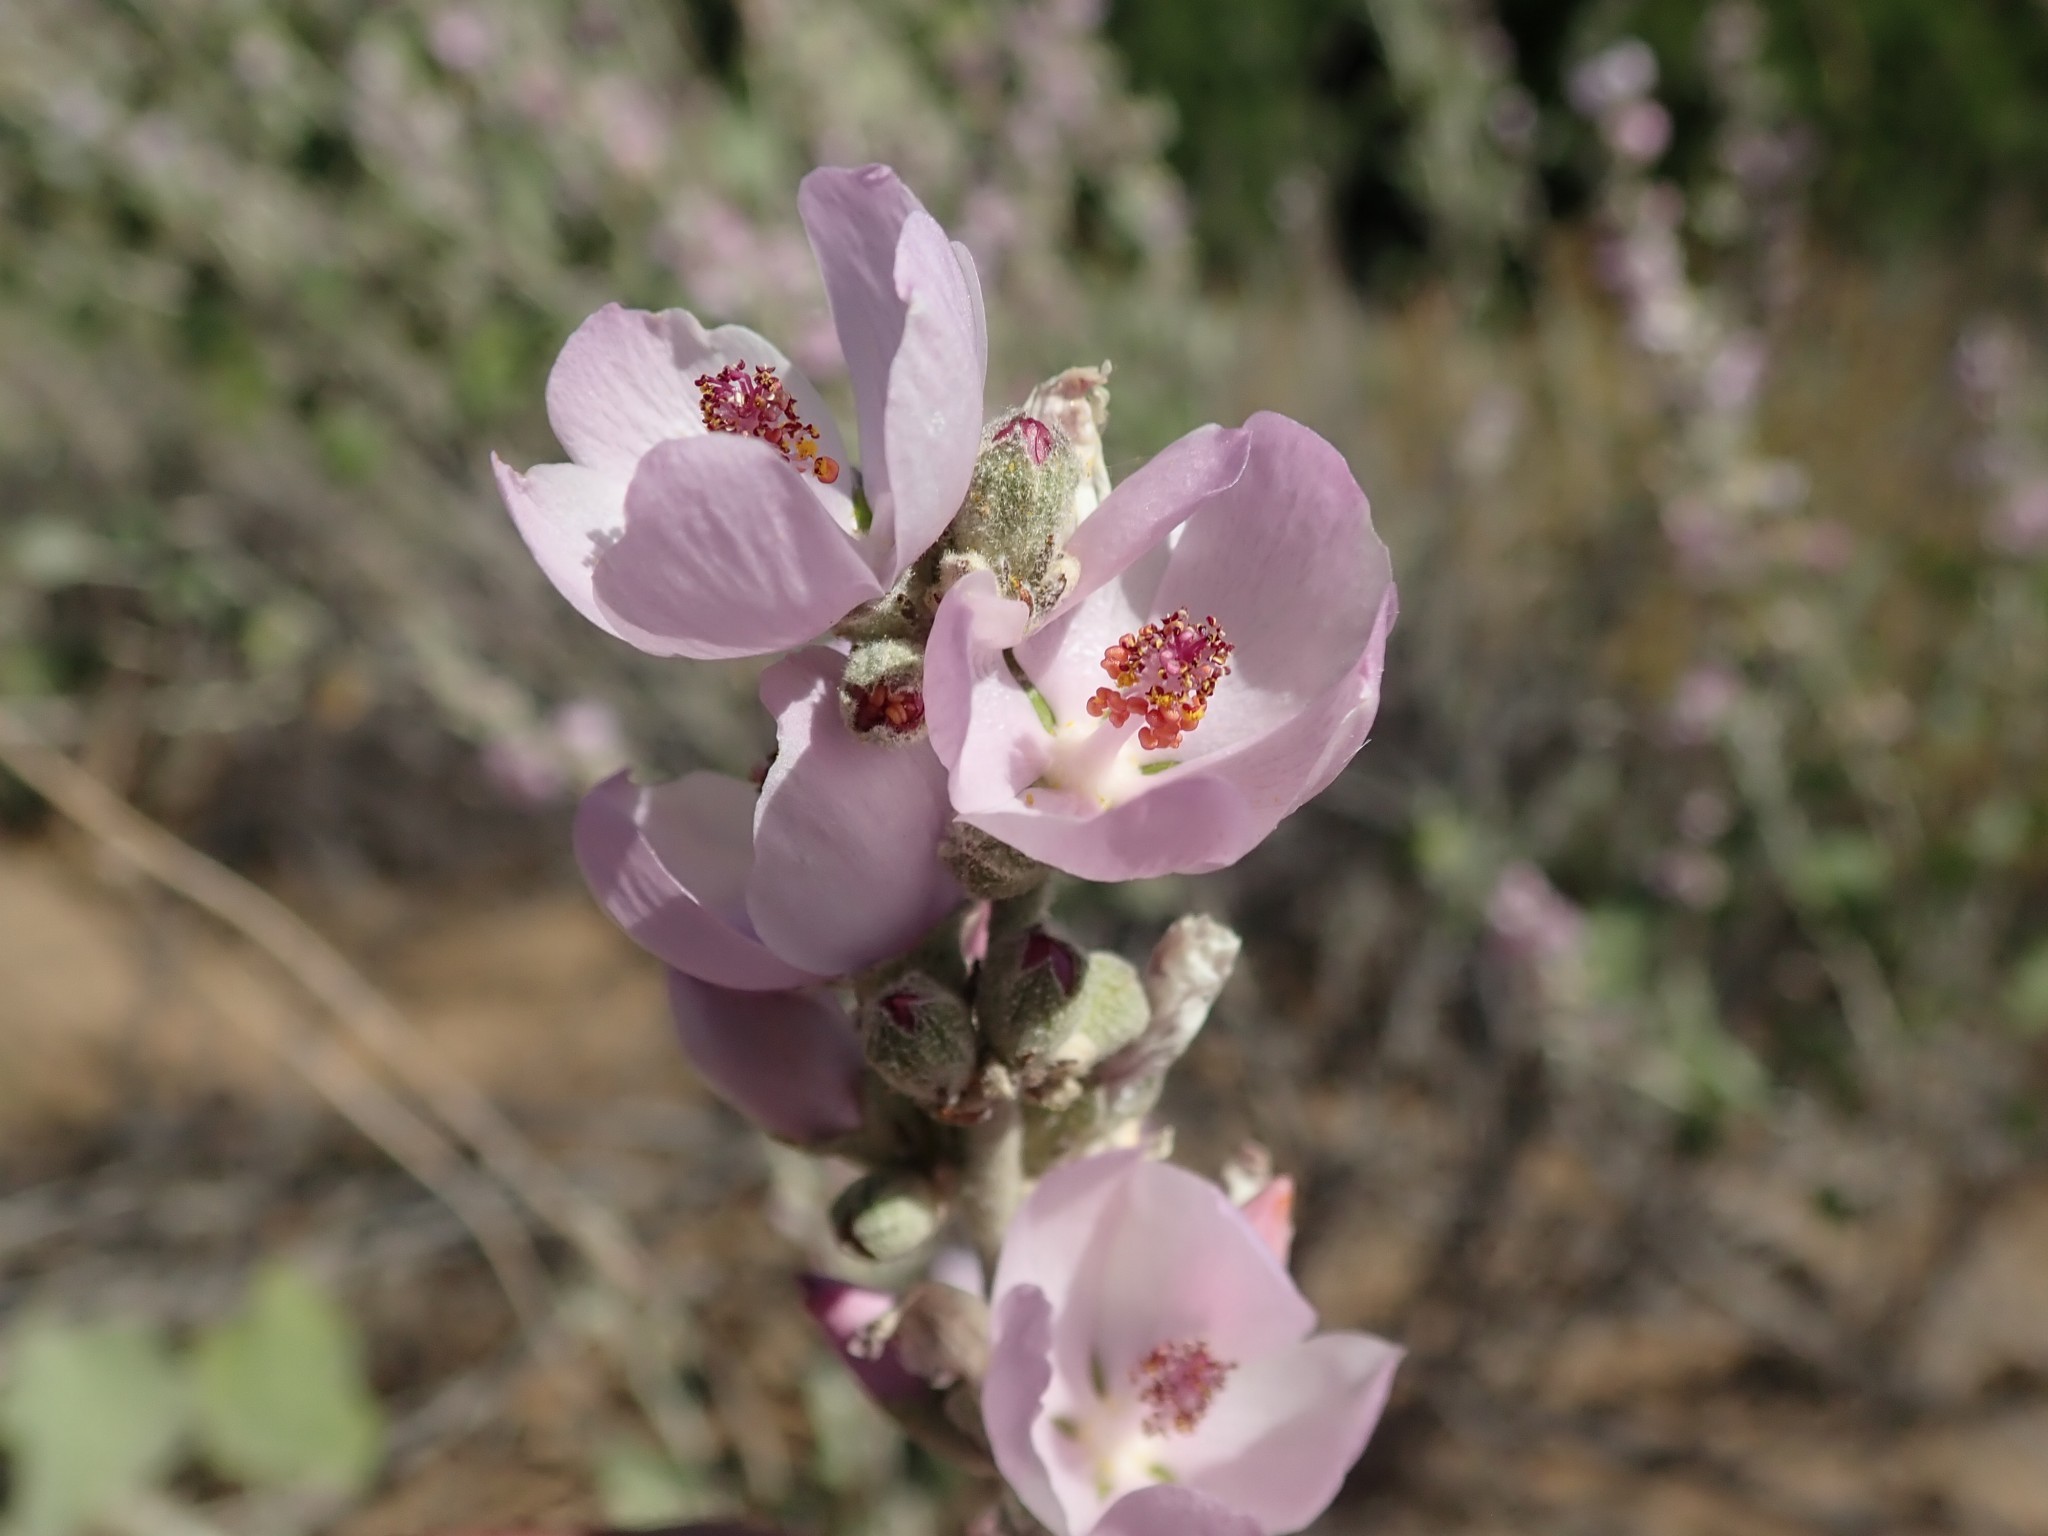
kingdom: Plantae
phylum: Tracheophyta
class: Magnoliopsida
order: Malvales
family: Malvaceae
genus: Malacothamnus
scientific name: Malacothamnus fasciculatus
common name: Sant cruz island bush-mallow
